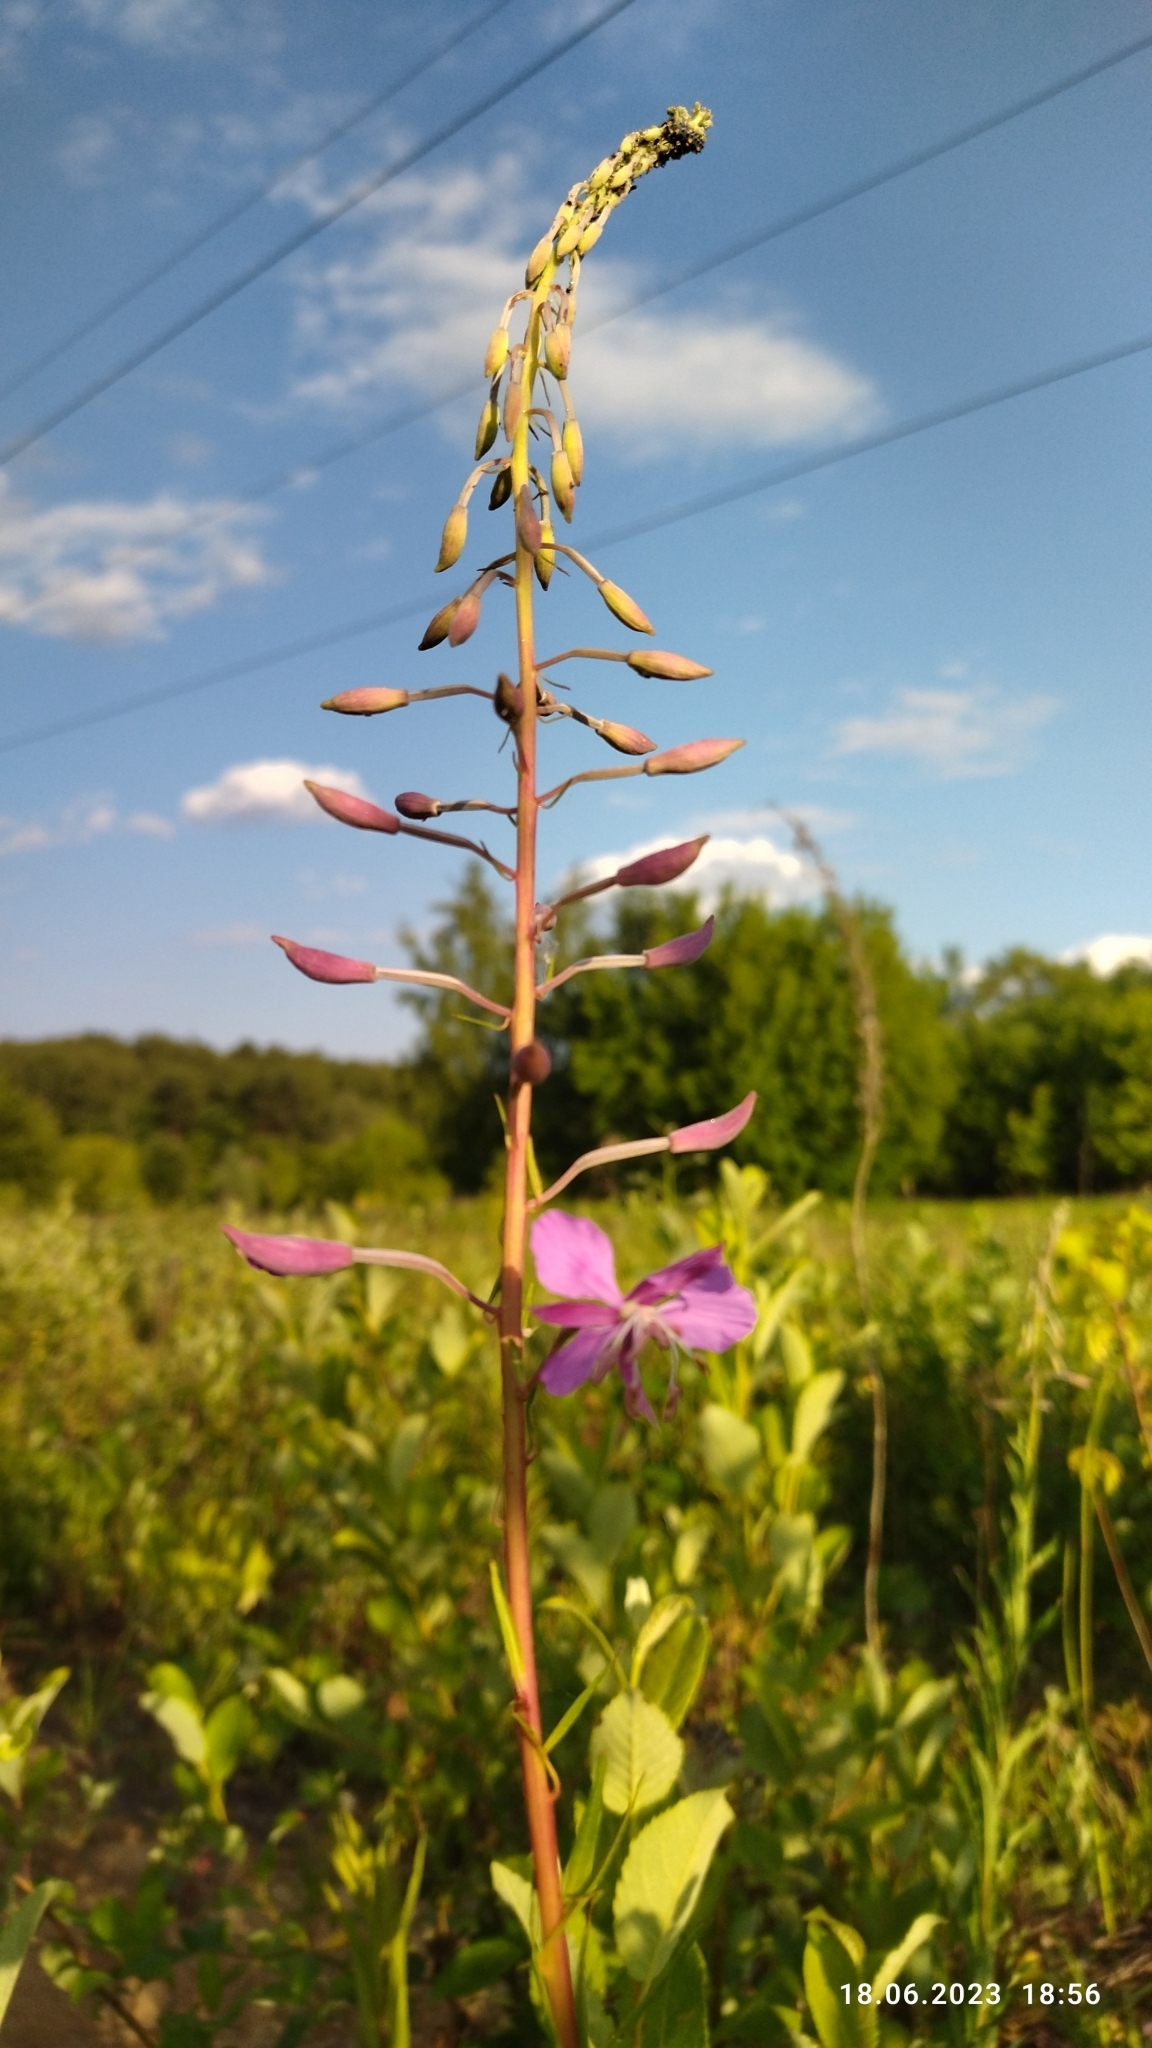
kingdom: Plantae
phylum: Tracheophyta
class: Magnoliopsida
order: Myrtales
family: Onagraceae
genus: Chamaenerion
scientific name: Chamaenerion angustifolium
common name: Fireweed
